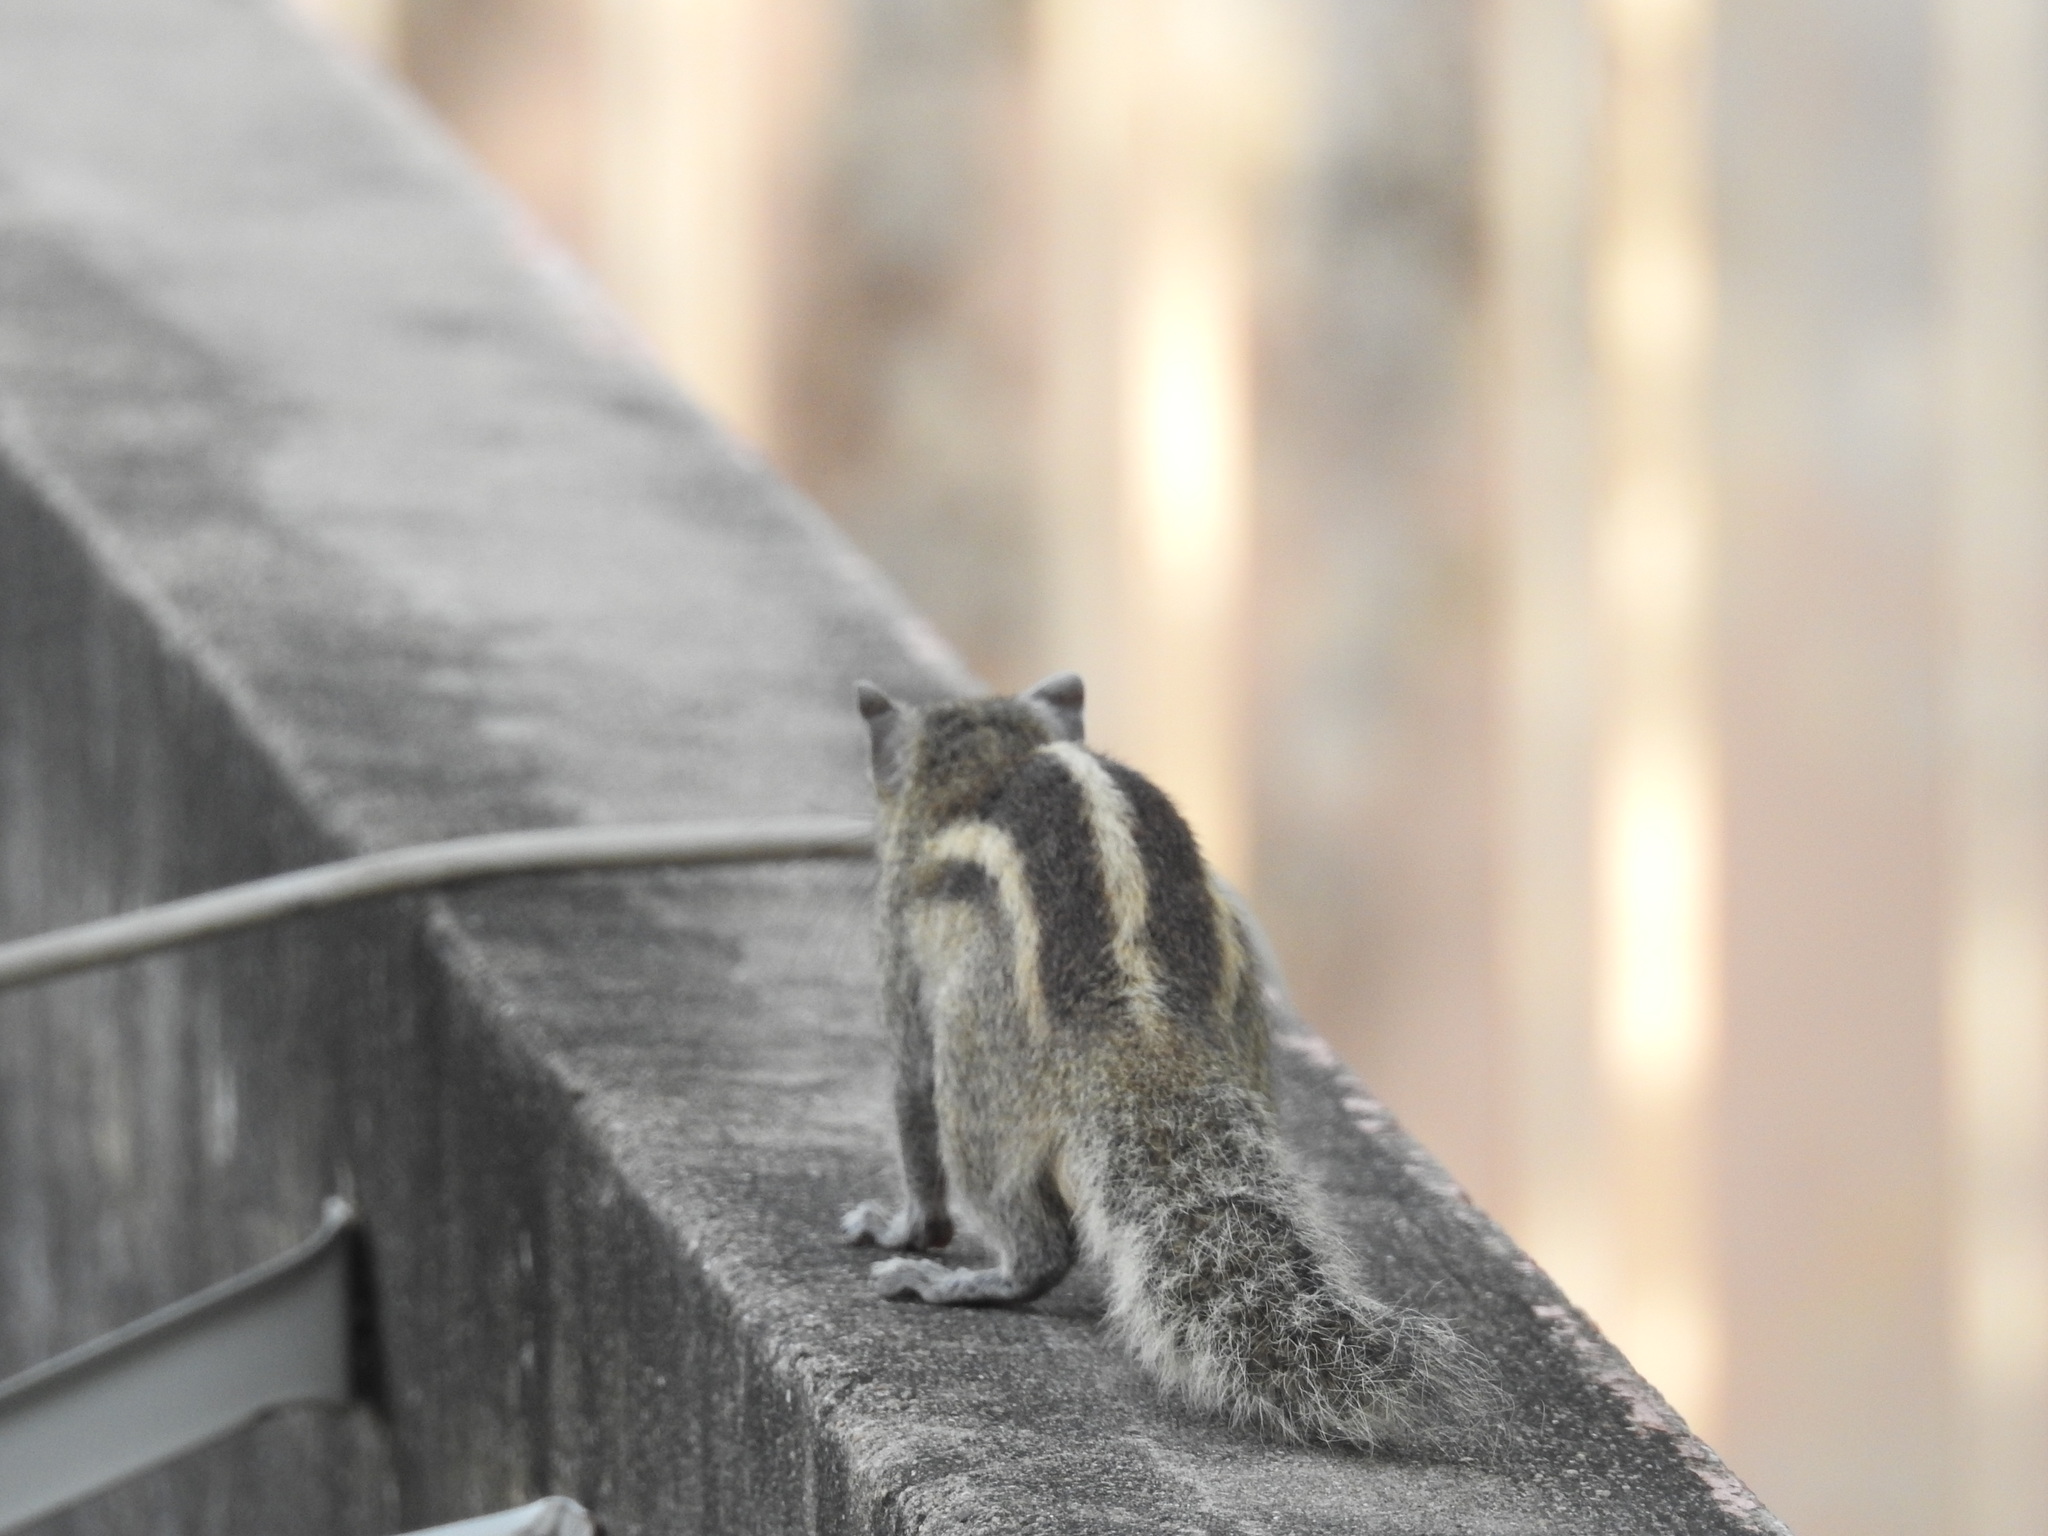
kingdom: Animalia
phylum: Chordata
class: Mammalia
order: Rodentia
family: Sciuridae
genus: Funambulus
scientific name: Funambulus palmarum
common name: Indian palm squirrel
